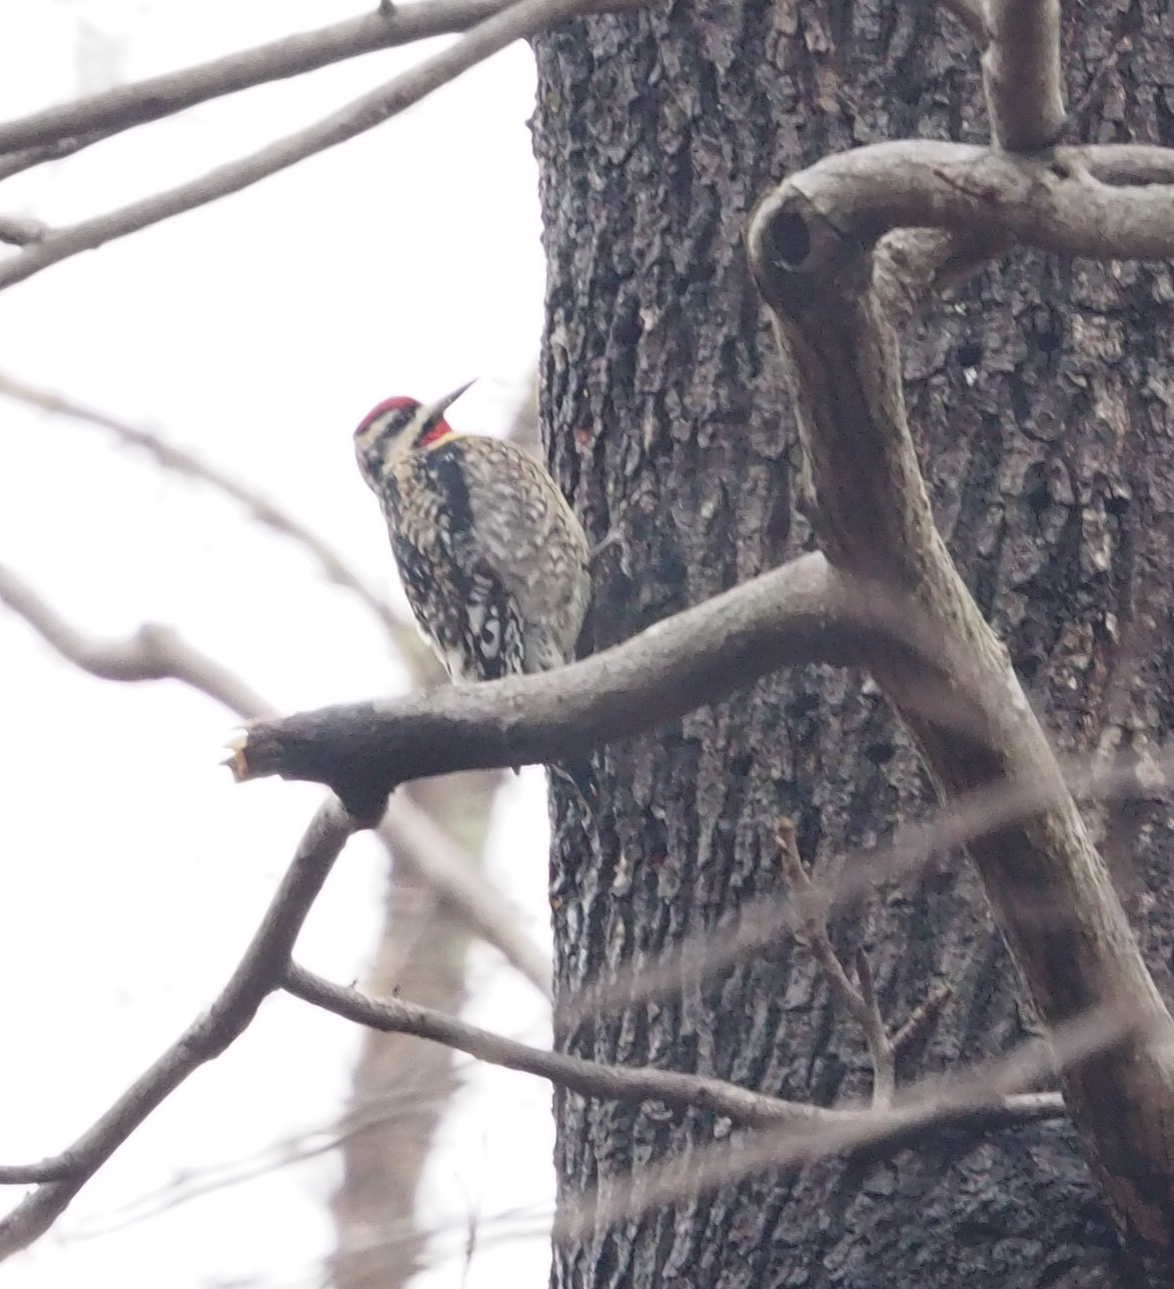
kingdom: Animalia
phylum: Chordata
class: Aves
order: Piciformes
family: Picidae
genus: Sphyrapicus
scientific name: Sphyrapicus varius
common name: Yellow-bellied sapsucker
